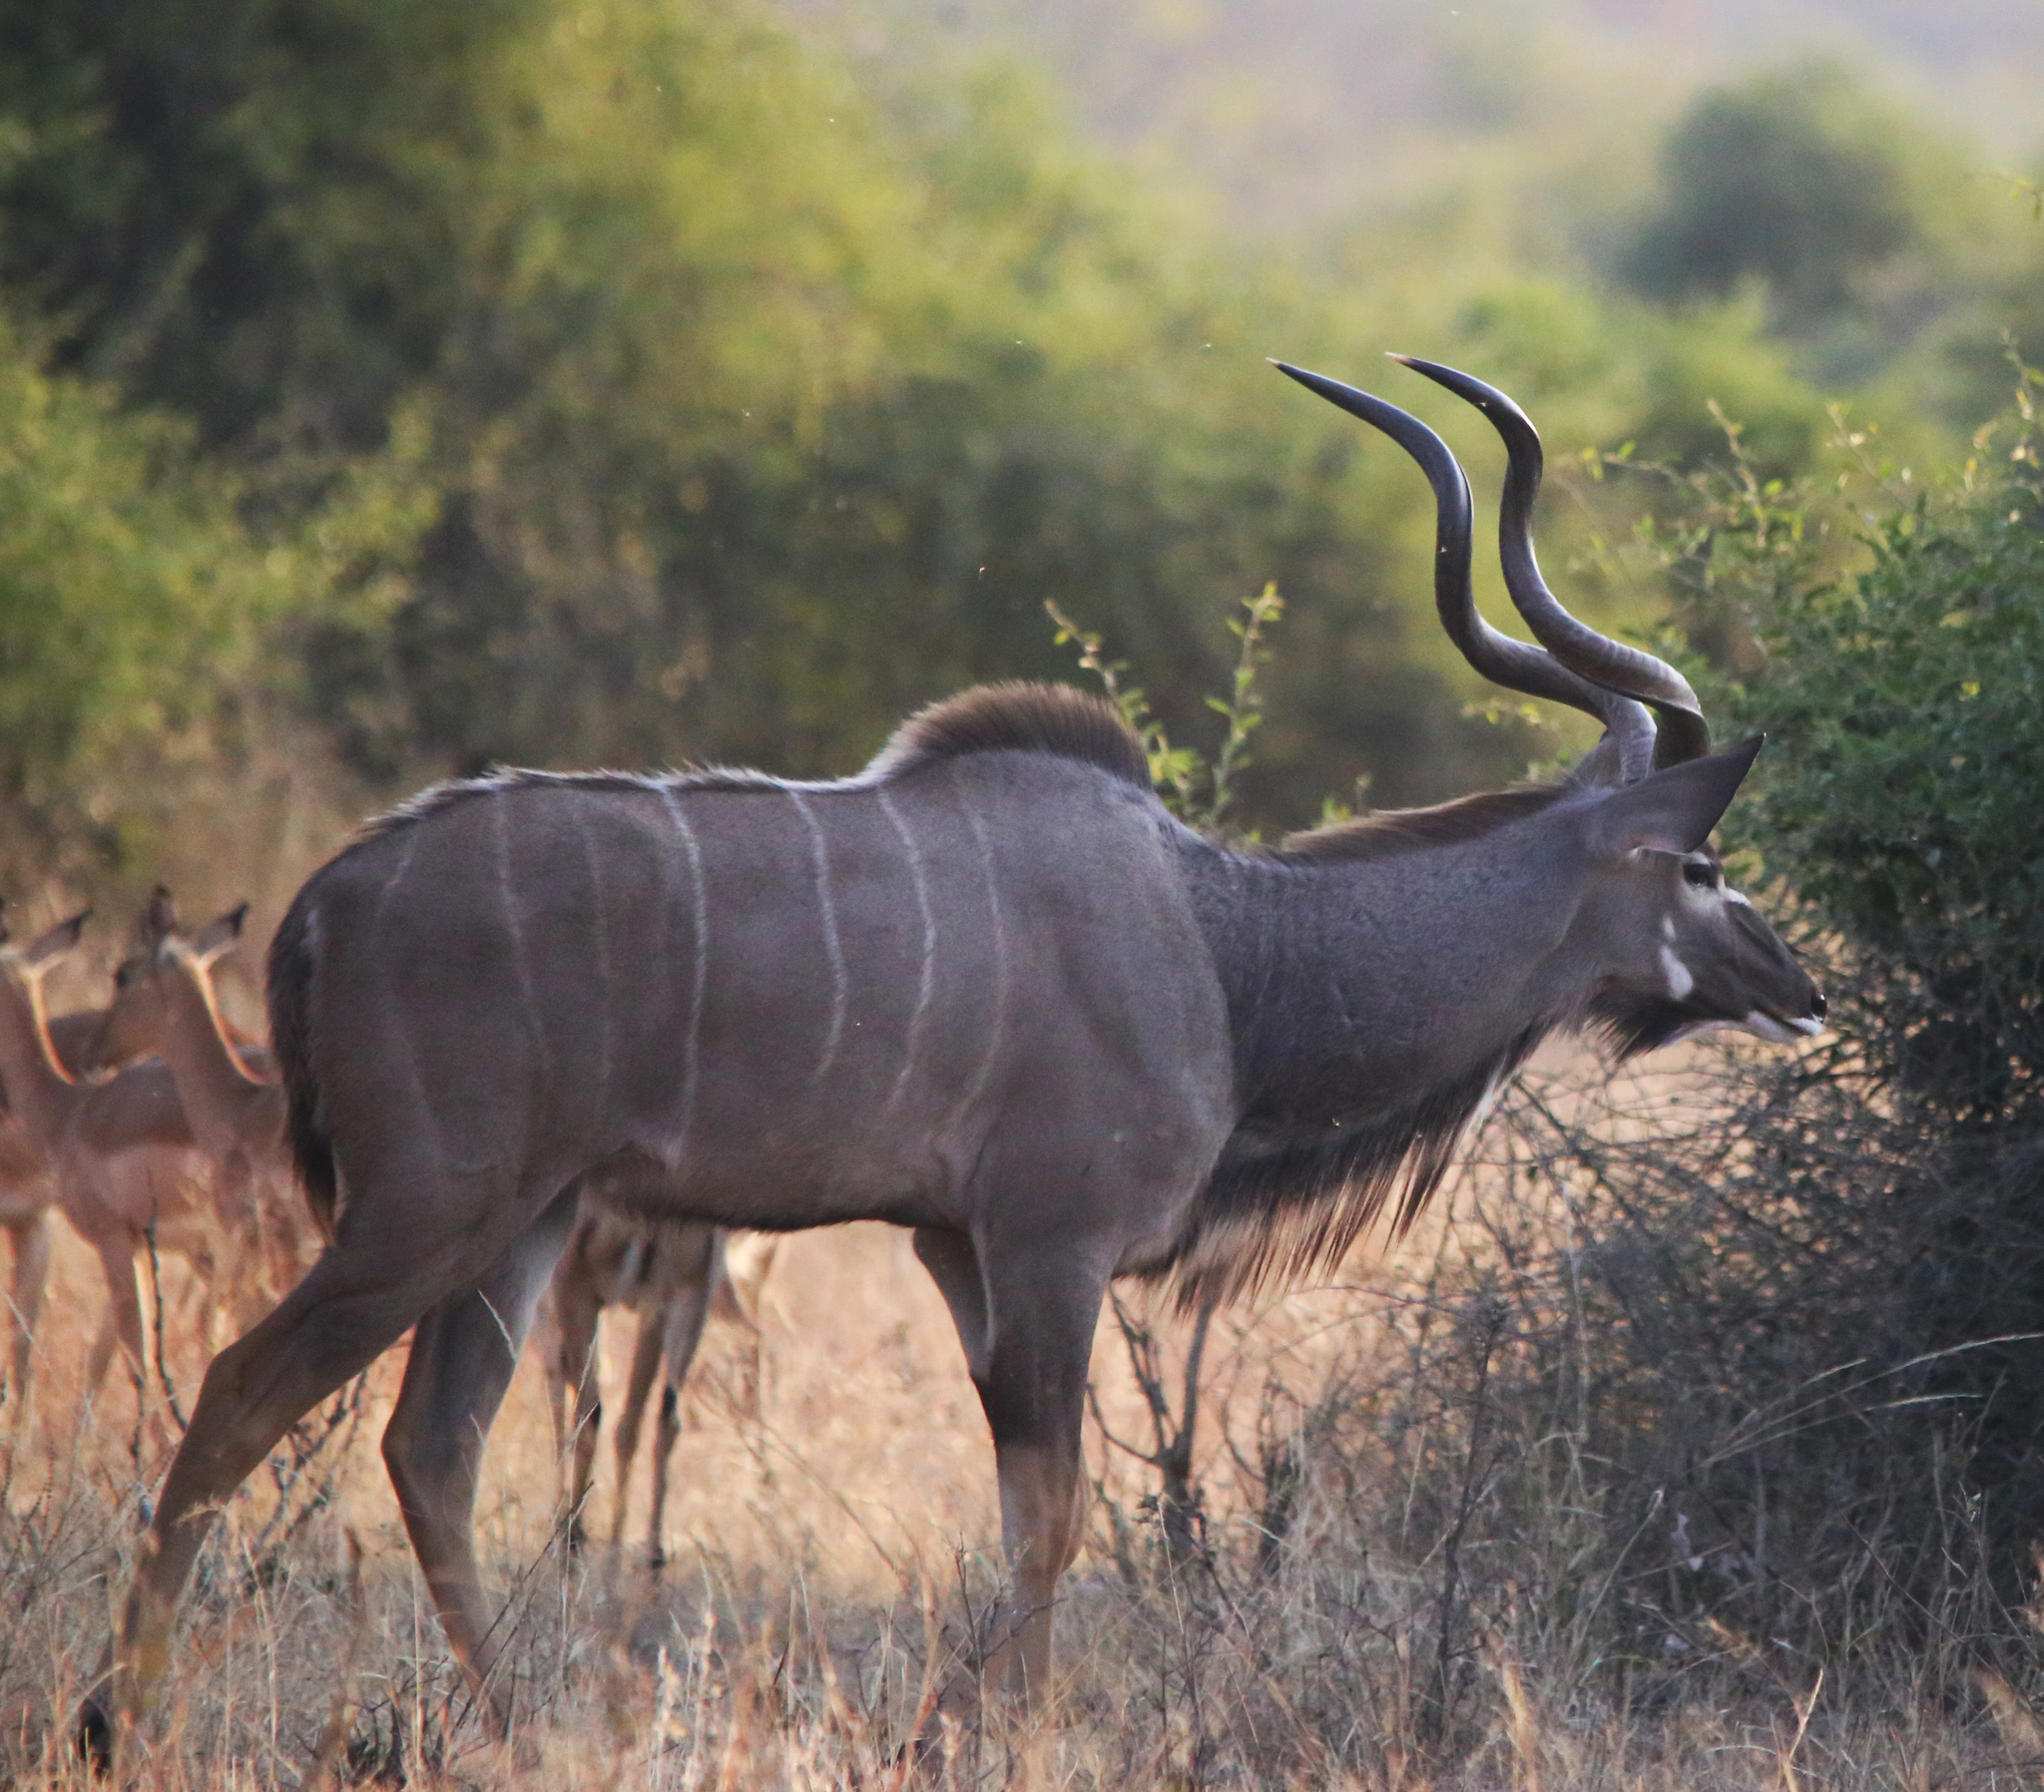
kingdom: Animalia
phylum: Chordata
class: Mammalia
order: Artiodactyla
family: Bovidae
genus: Tragelaphus
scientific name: Tragelaphus strepsiceros
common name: Greater kudu
